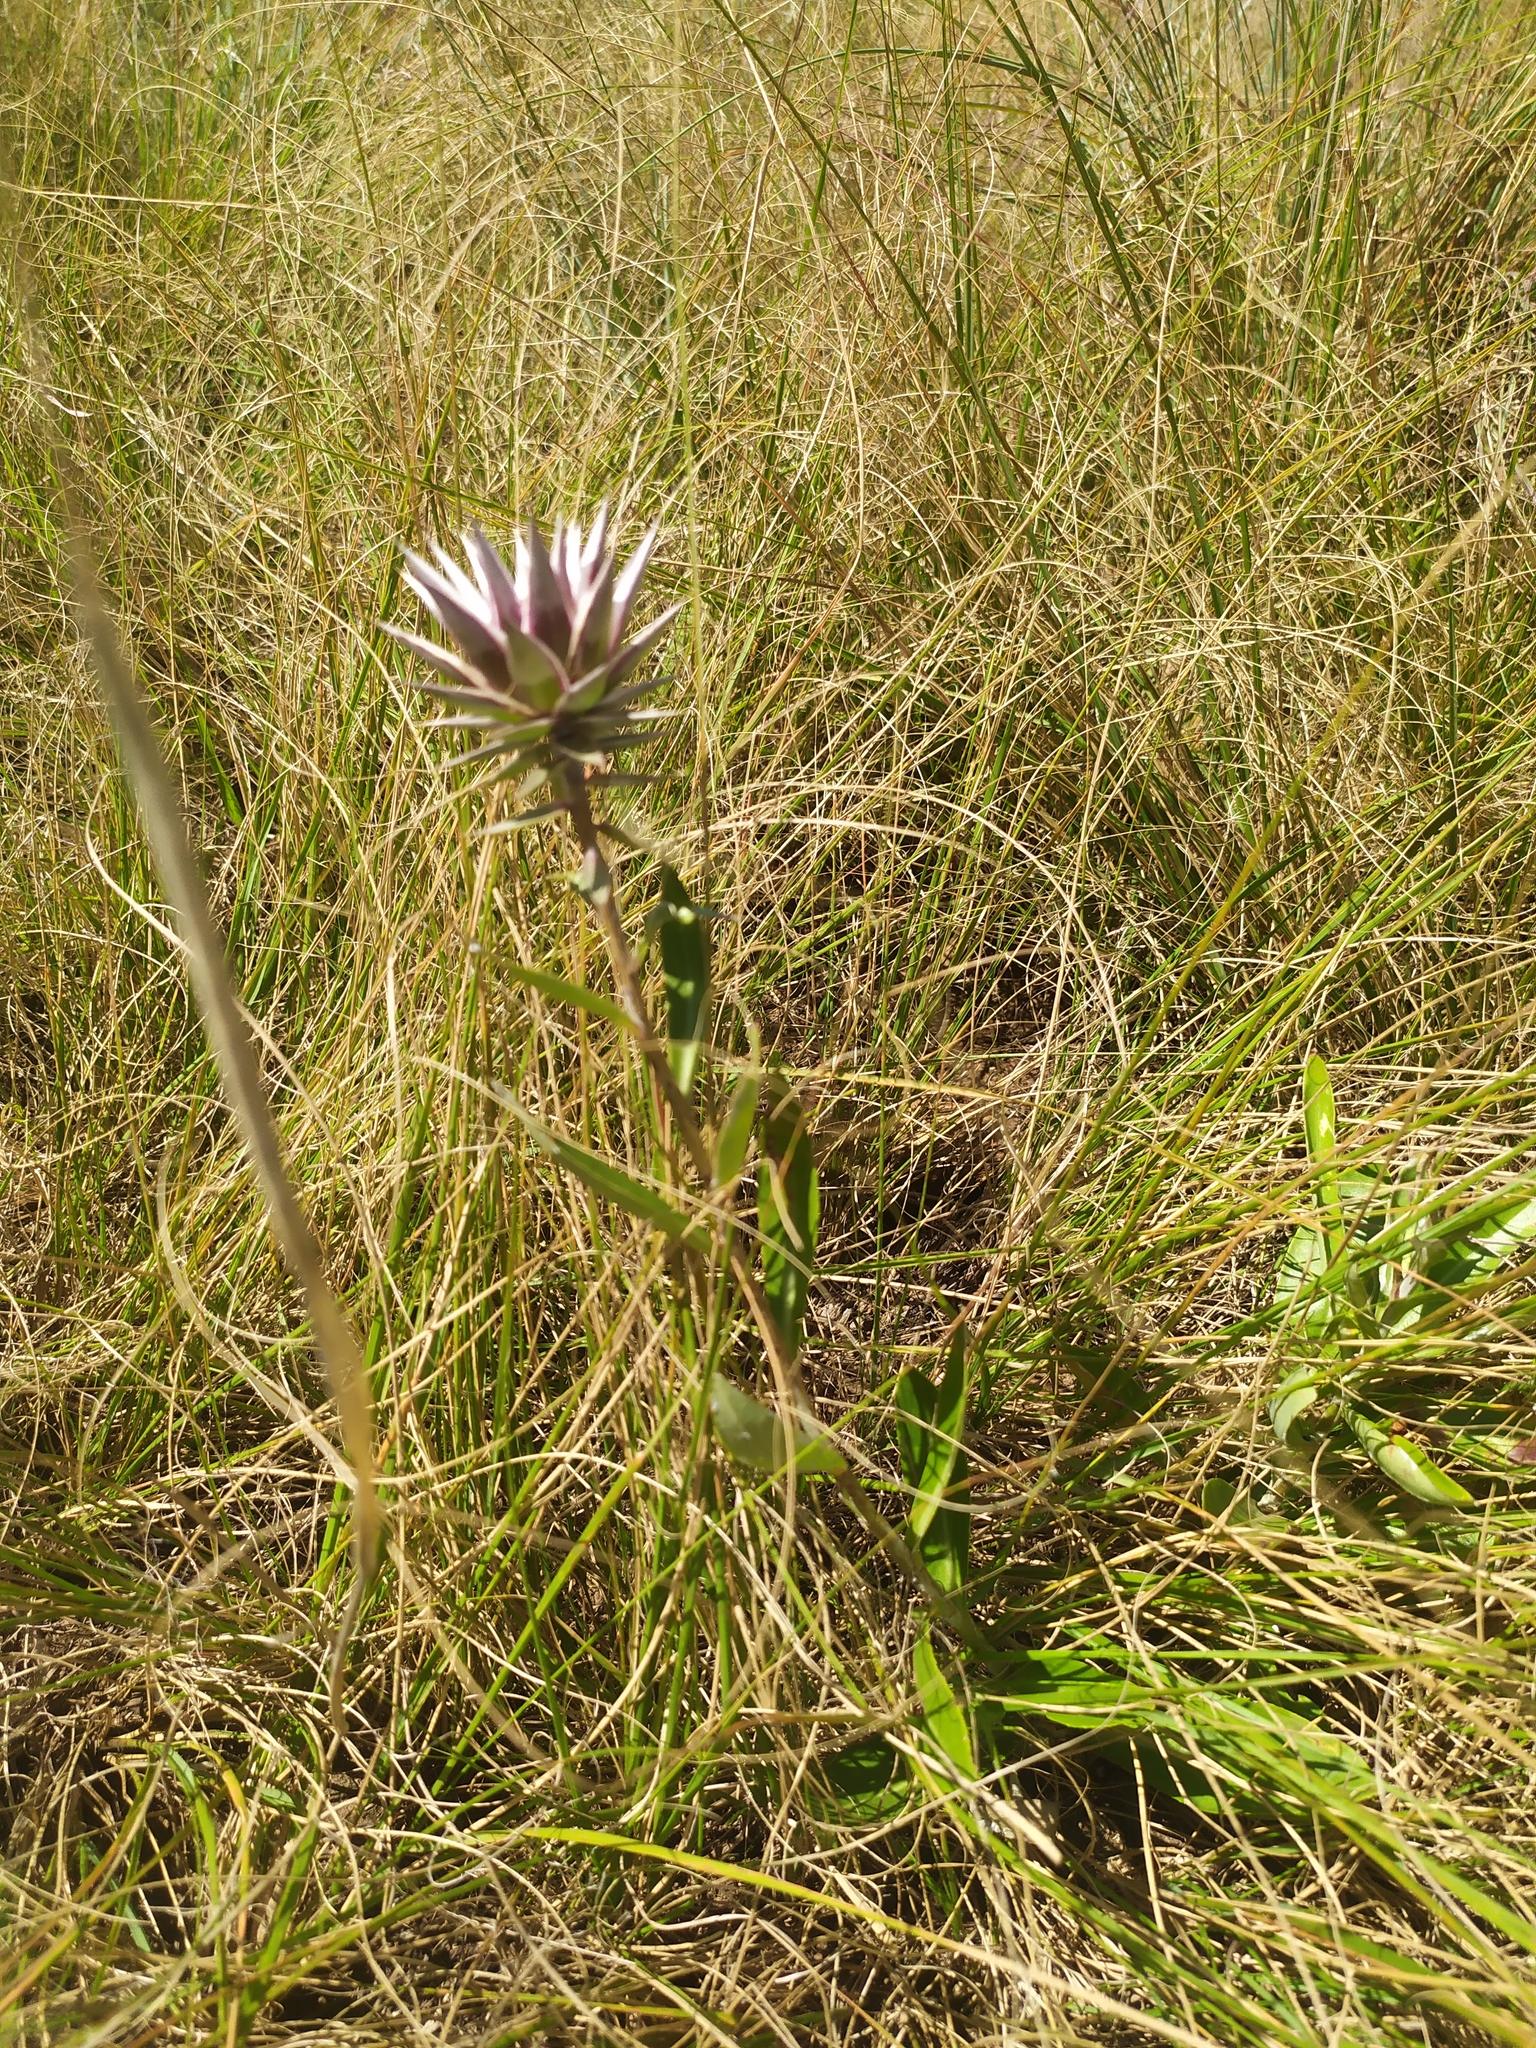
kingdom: Plantae
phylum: Tracheophyta
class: Magnoliopsida
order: Asterales
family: Asteraceae
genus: Macledium
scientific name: Macledium zeyheri
